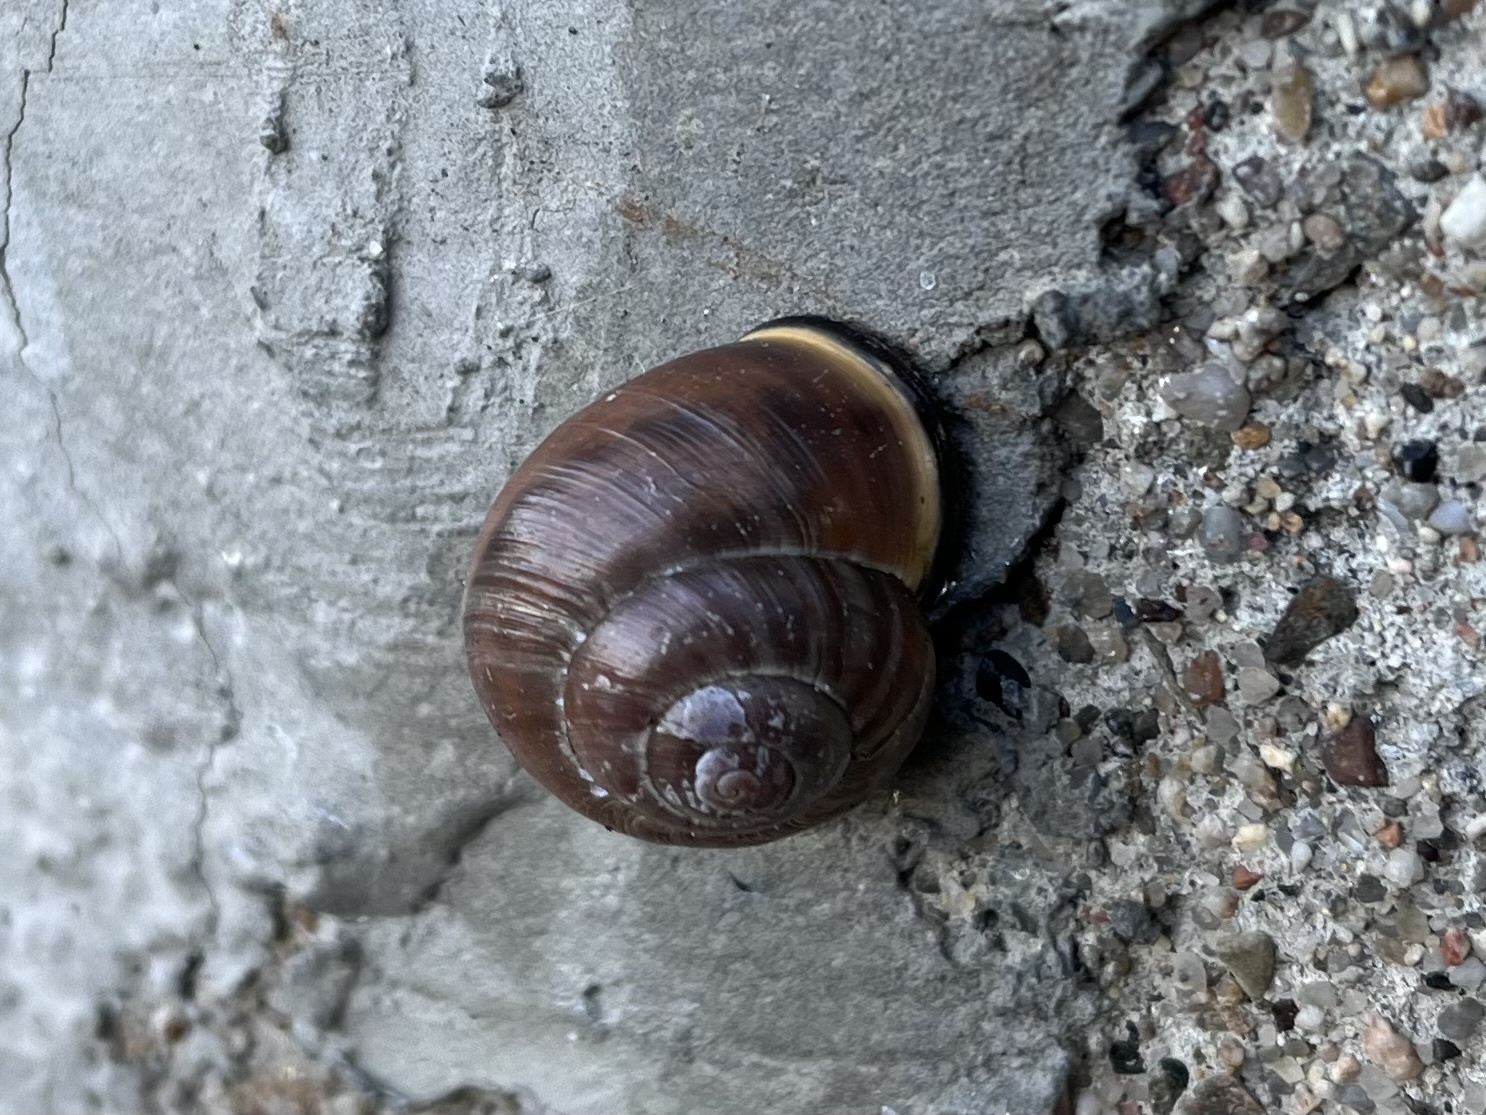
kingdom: Animalia
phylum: Mollusca
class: Gastropoda
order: Stylommatophora
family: Helicidae
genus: Cepaea
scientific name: Cepaea nemoralis
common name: Grovesnail
